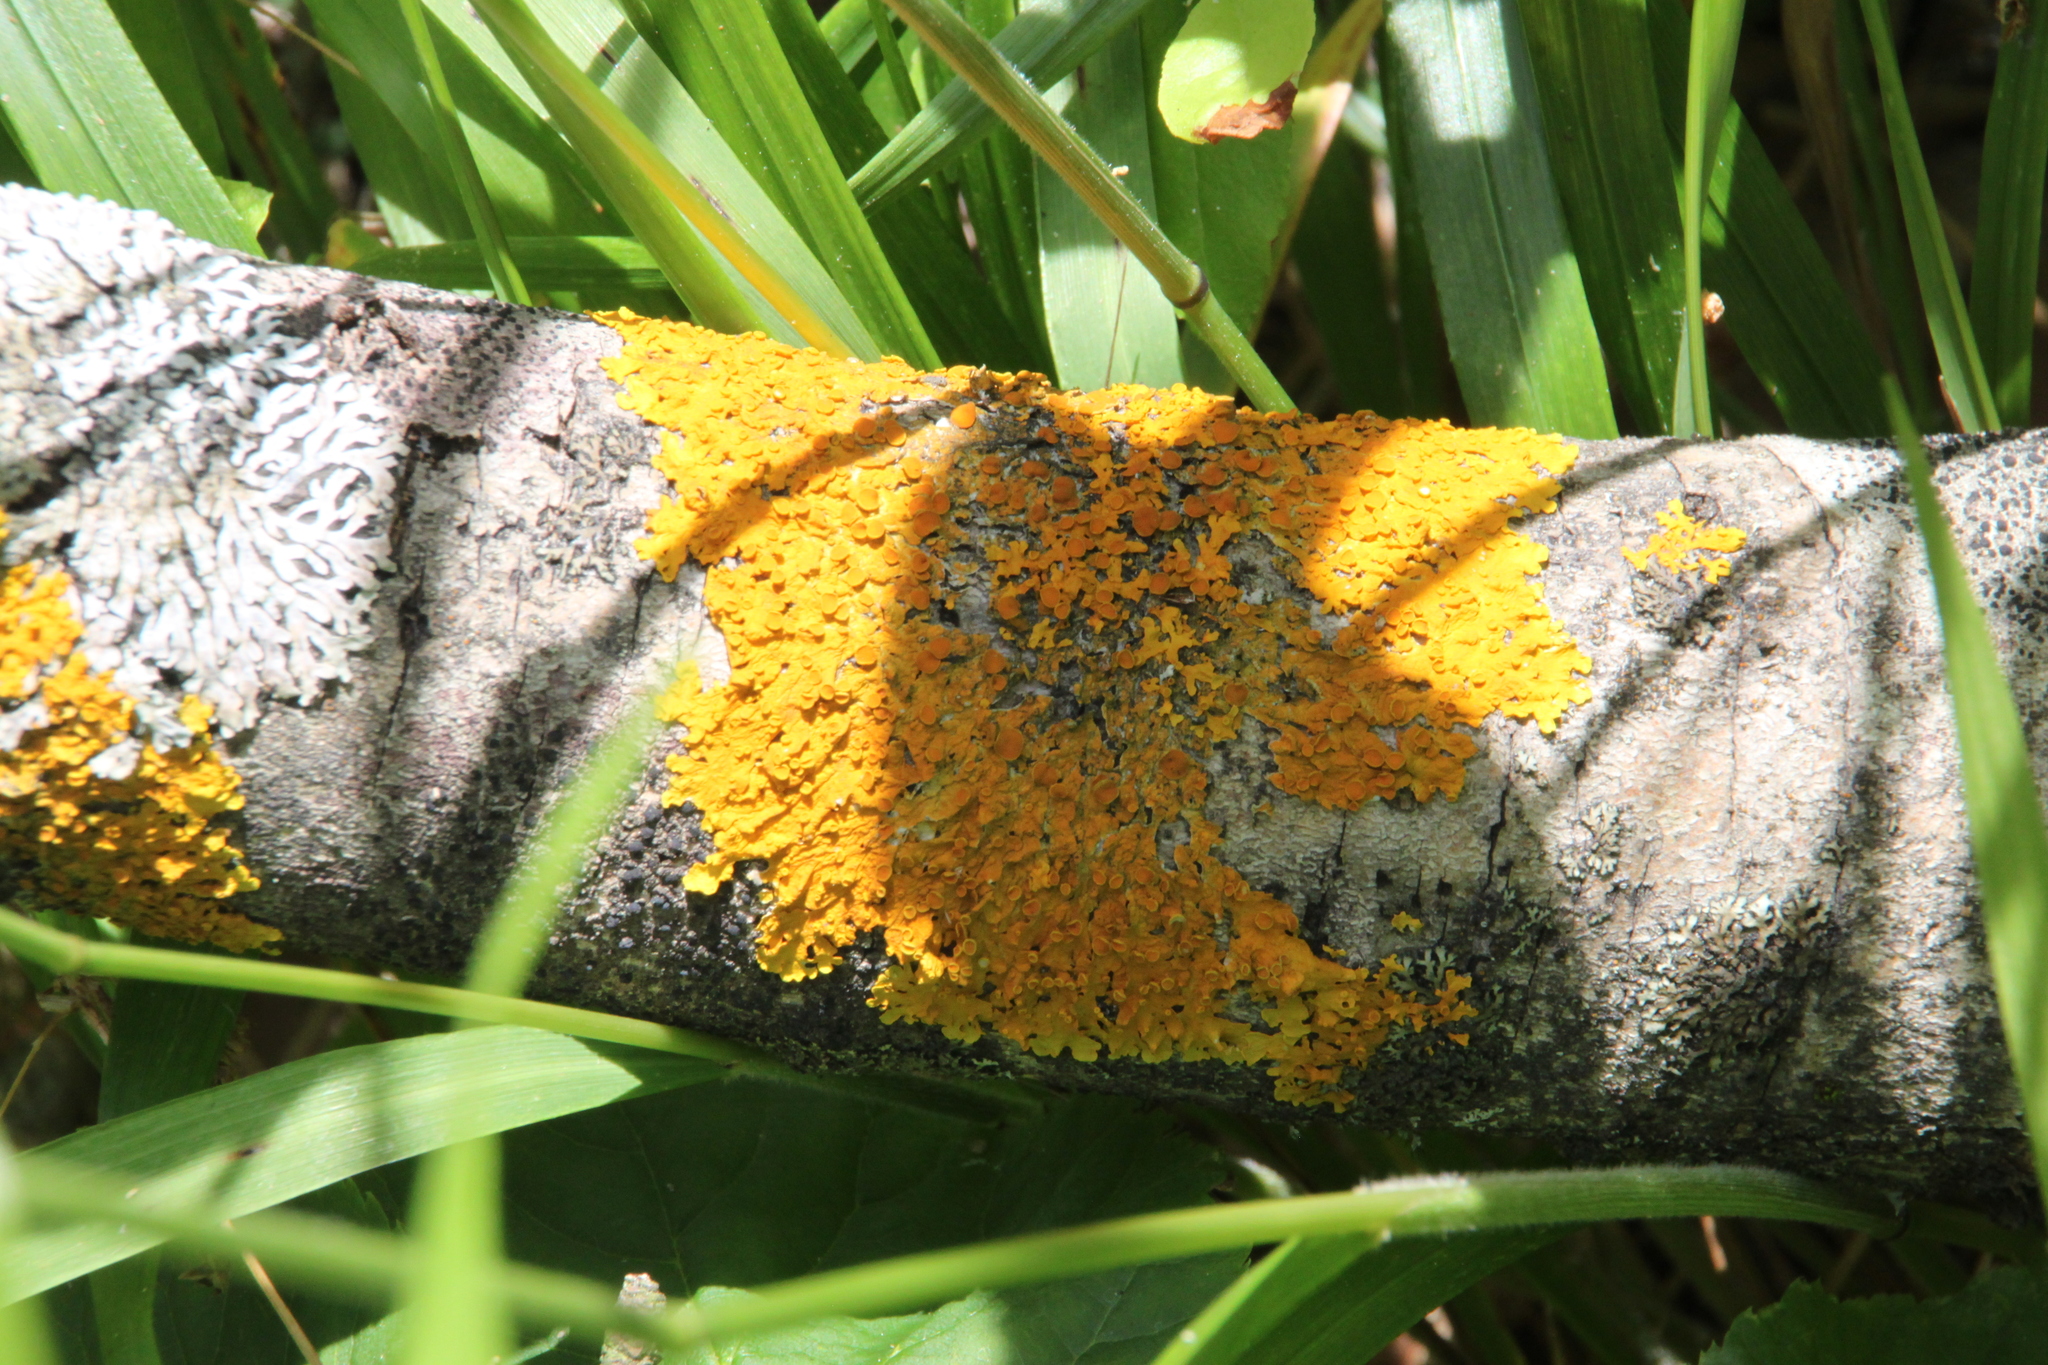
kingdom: Fungi
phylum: Ascomycota
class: Lecanoromycetes
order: Teloschistales
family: Teloschistaceae
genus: Xanthoria
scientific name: Xanthoria parietina
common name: Common orange lichen
